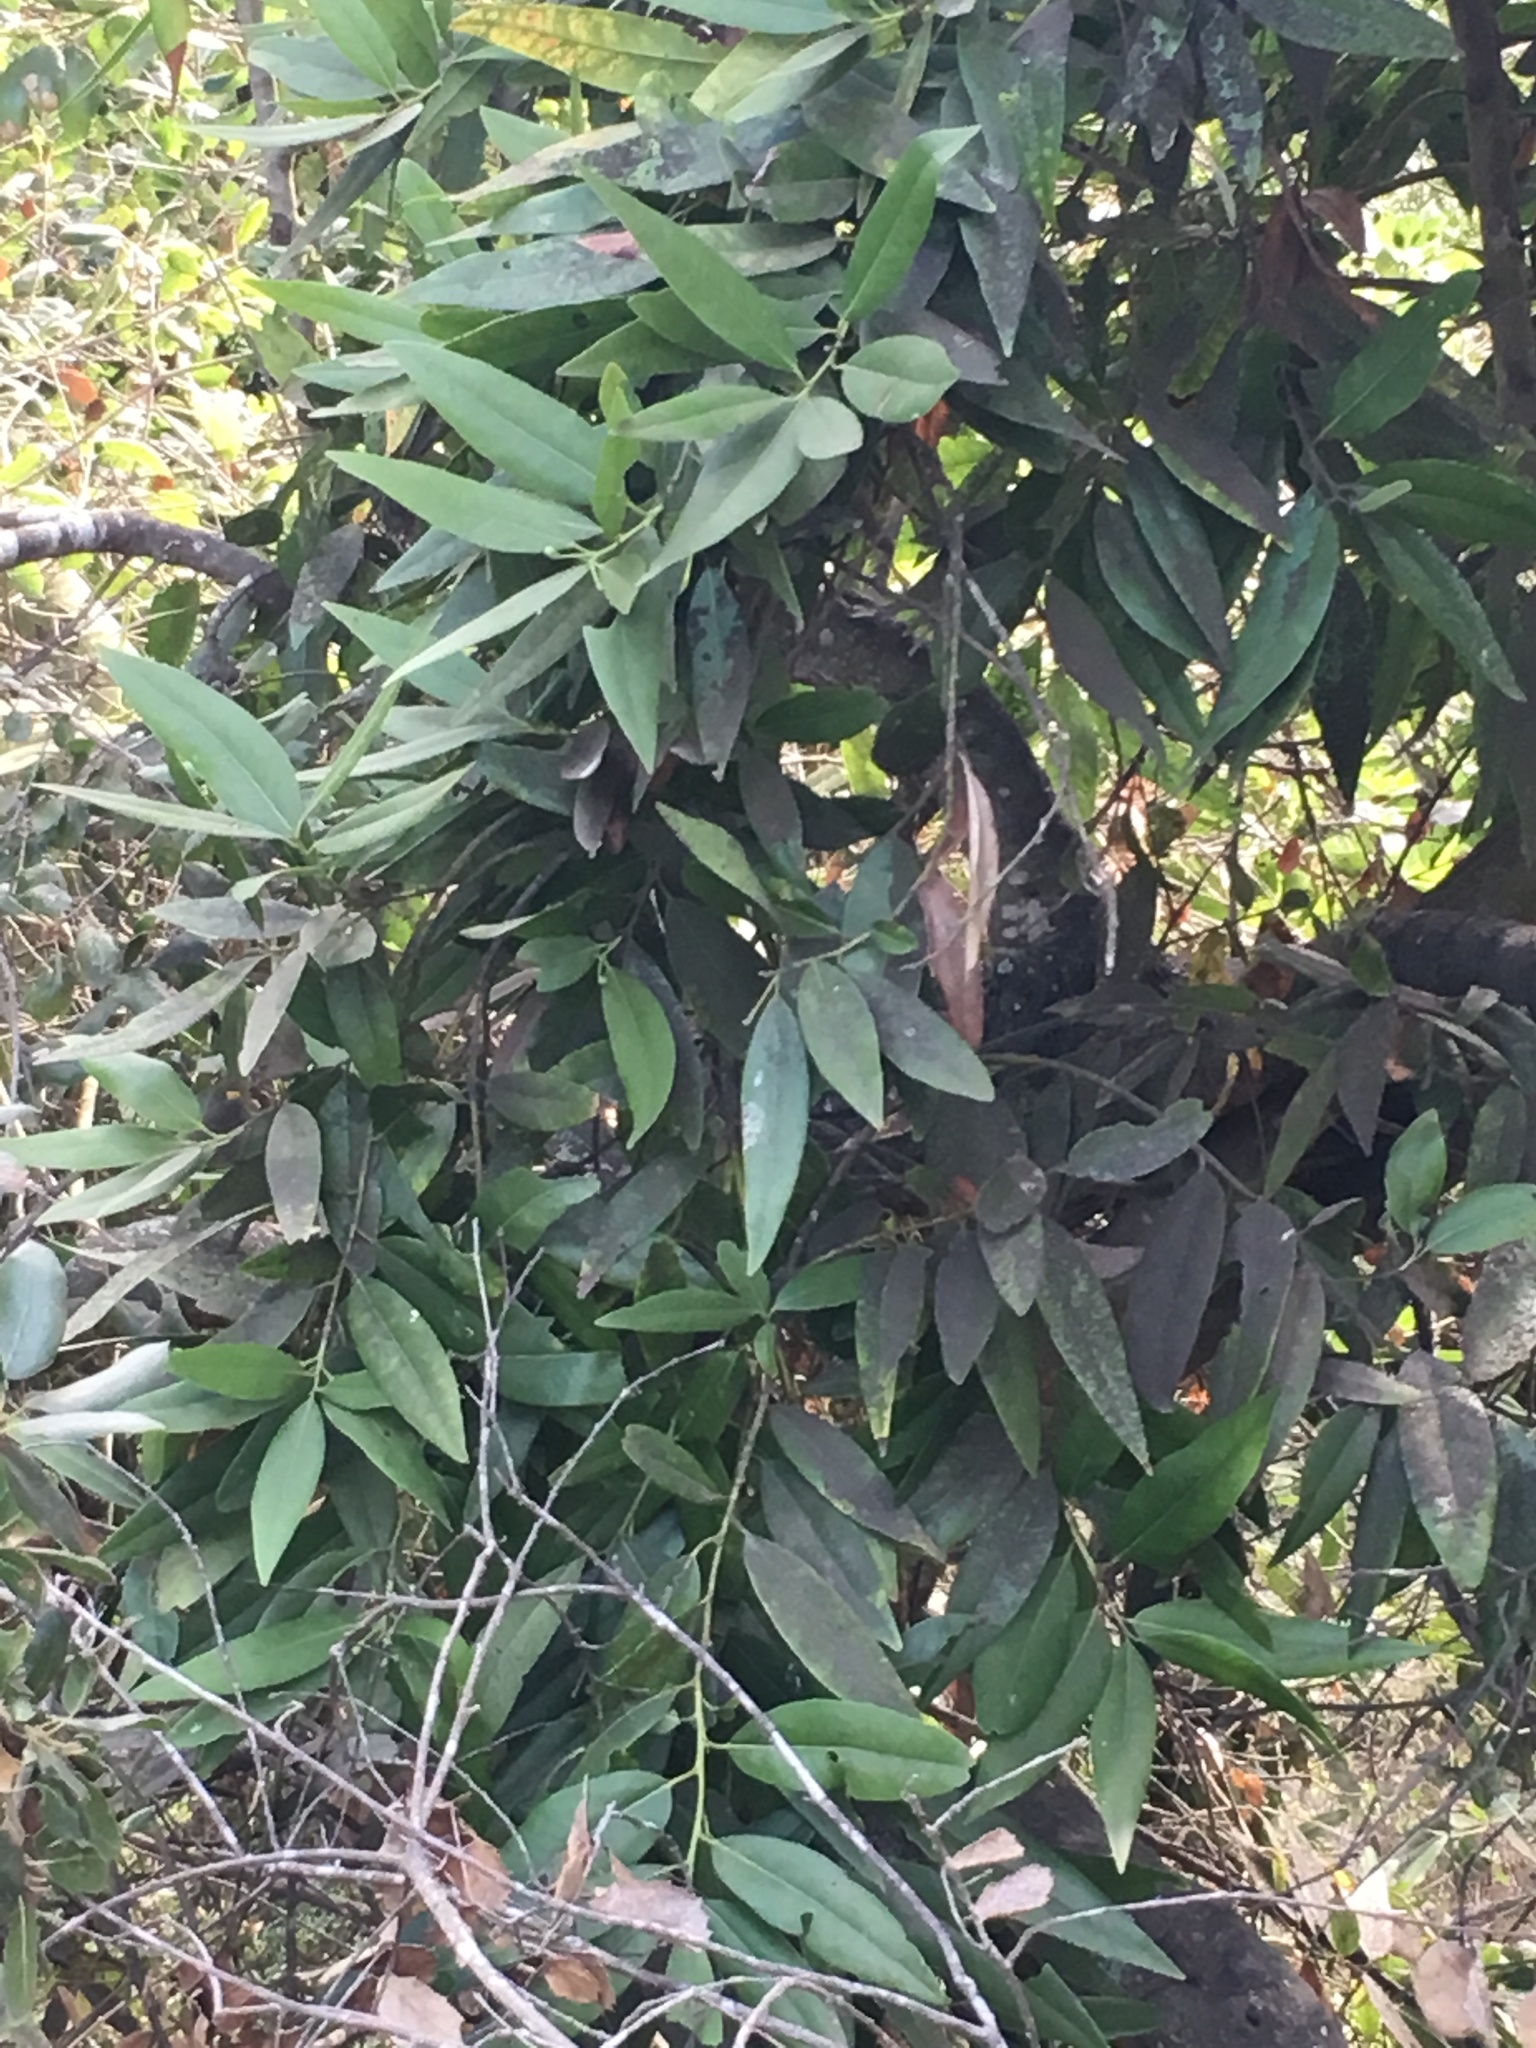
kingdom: Plantae
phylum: Tracheophyta
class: Magnoliopsida
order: Laurales
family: Lauraceae
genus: Umbellularia
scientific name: Umbellularia californica
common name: California bay
